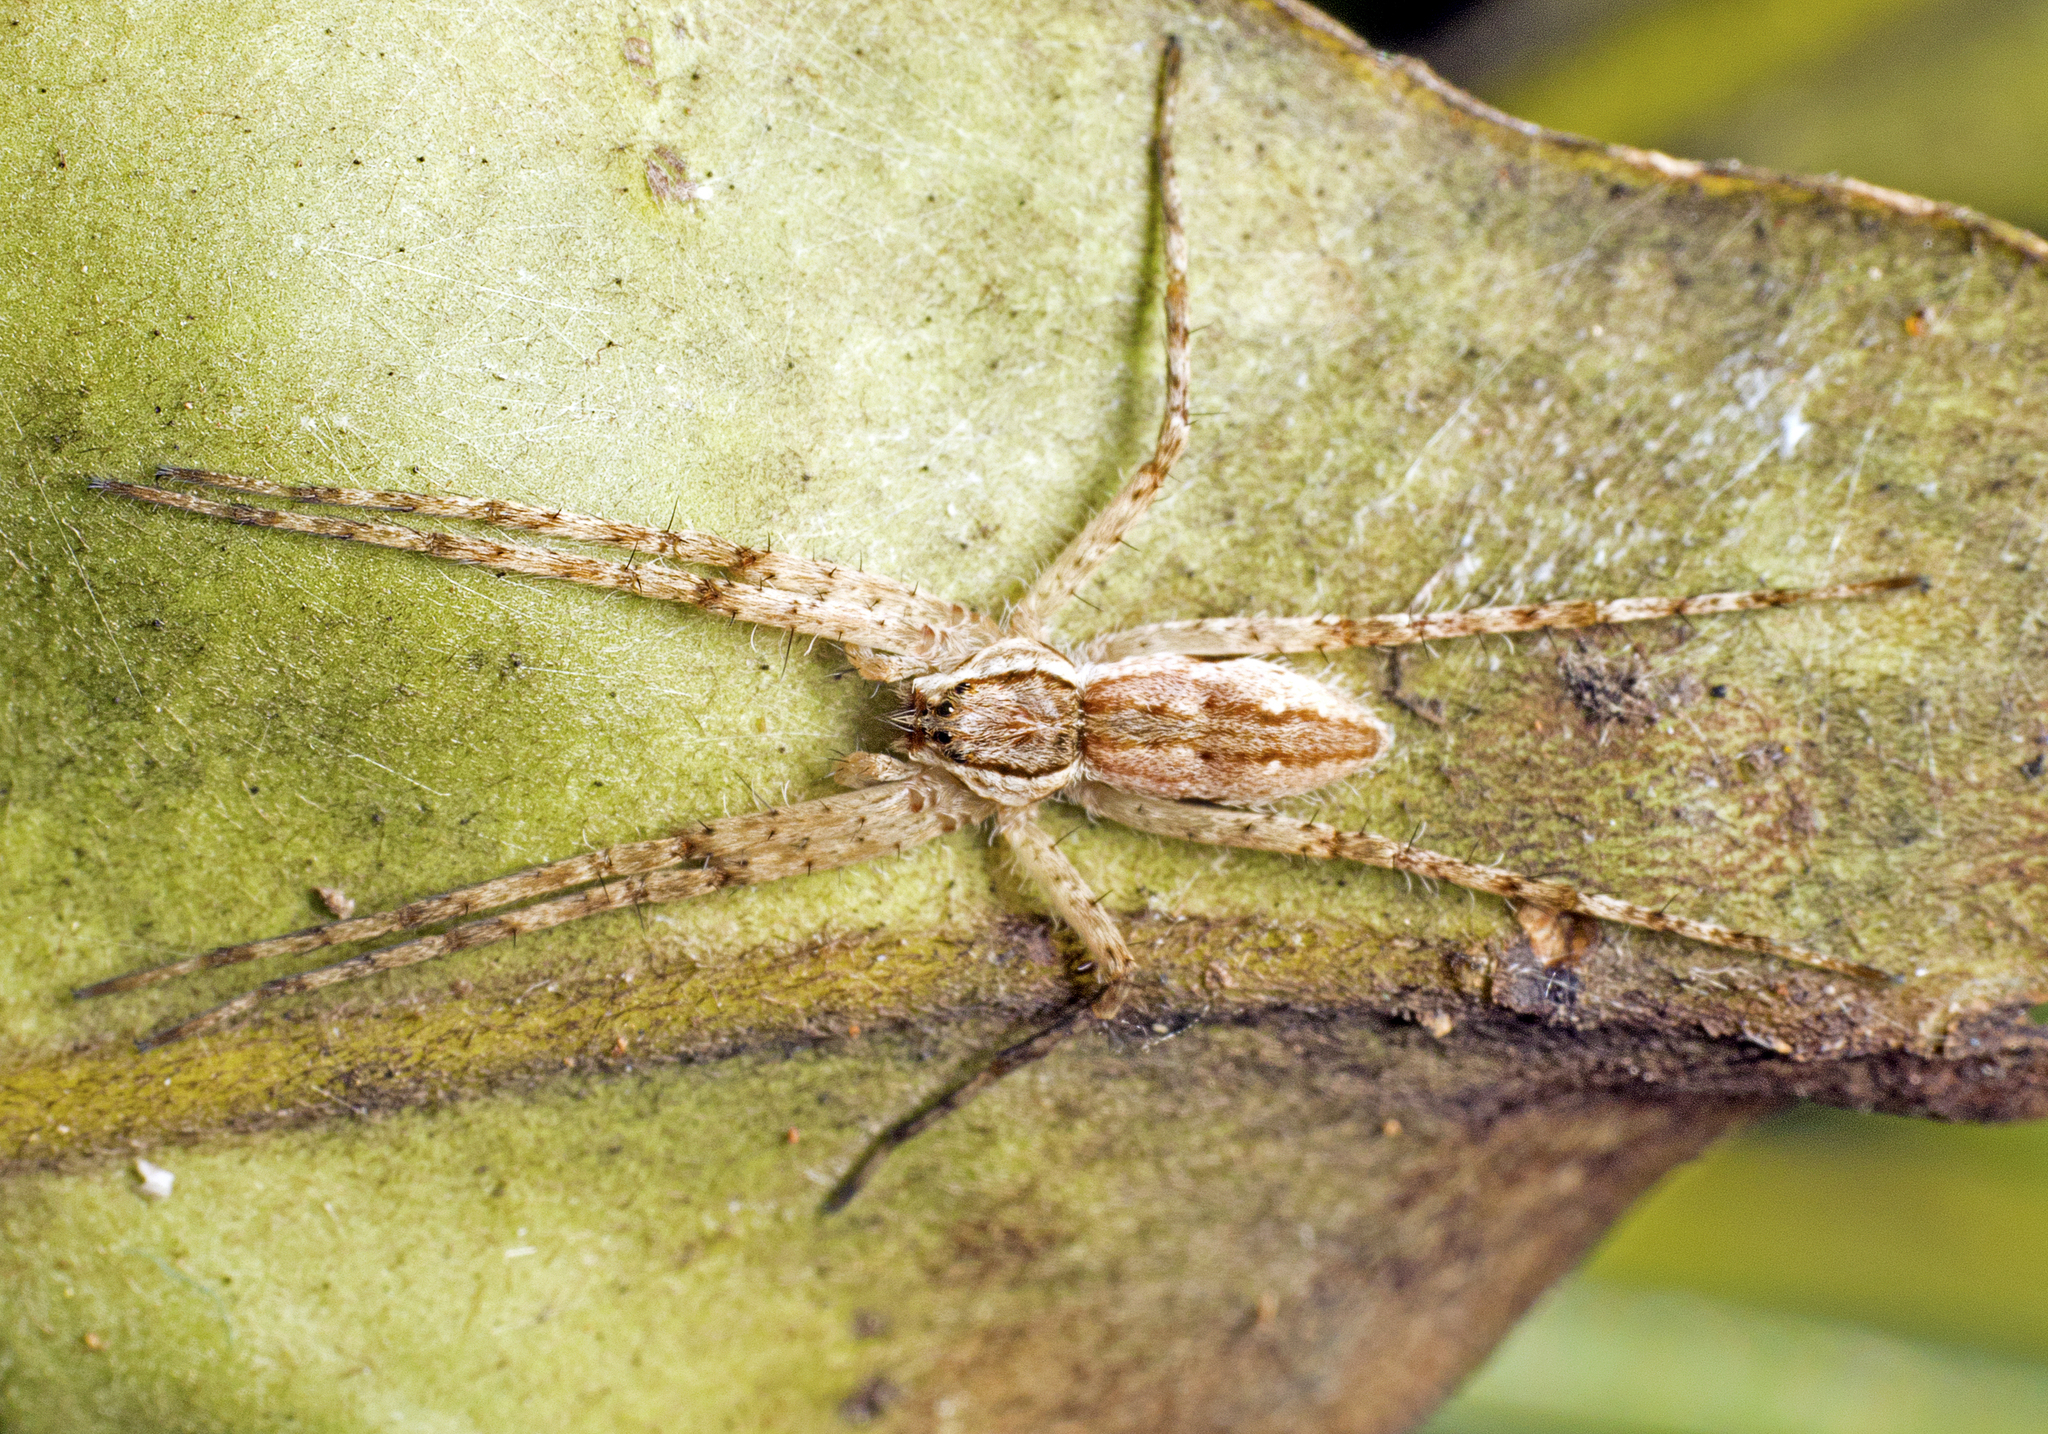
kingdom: Animalia
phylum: Arthropoda
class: Arachnida
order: Araneae
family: Pisauridae
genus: Megadolomedes
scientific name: Megadolomedes trux
